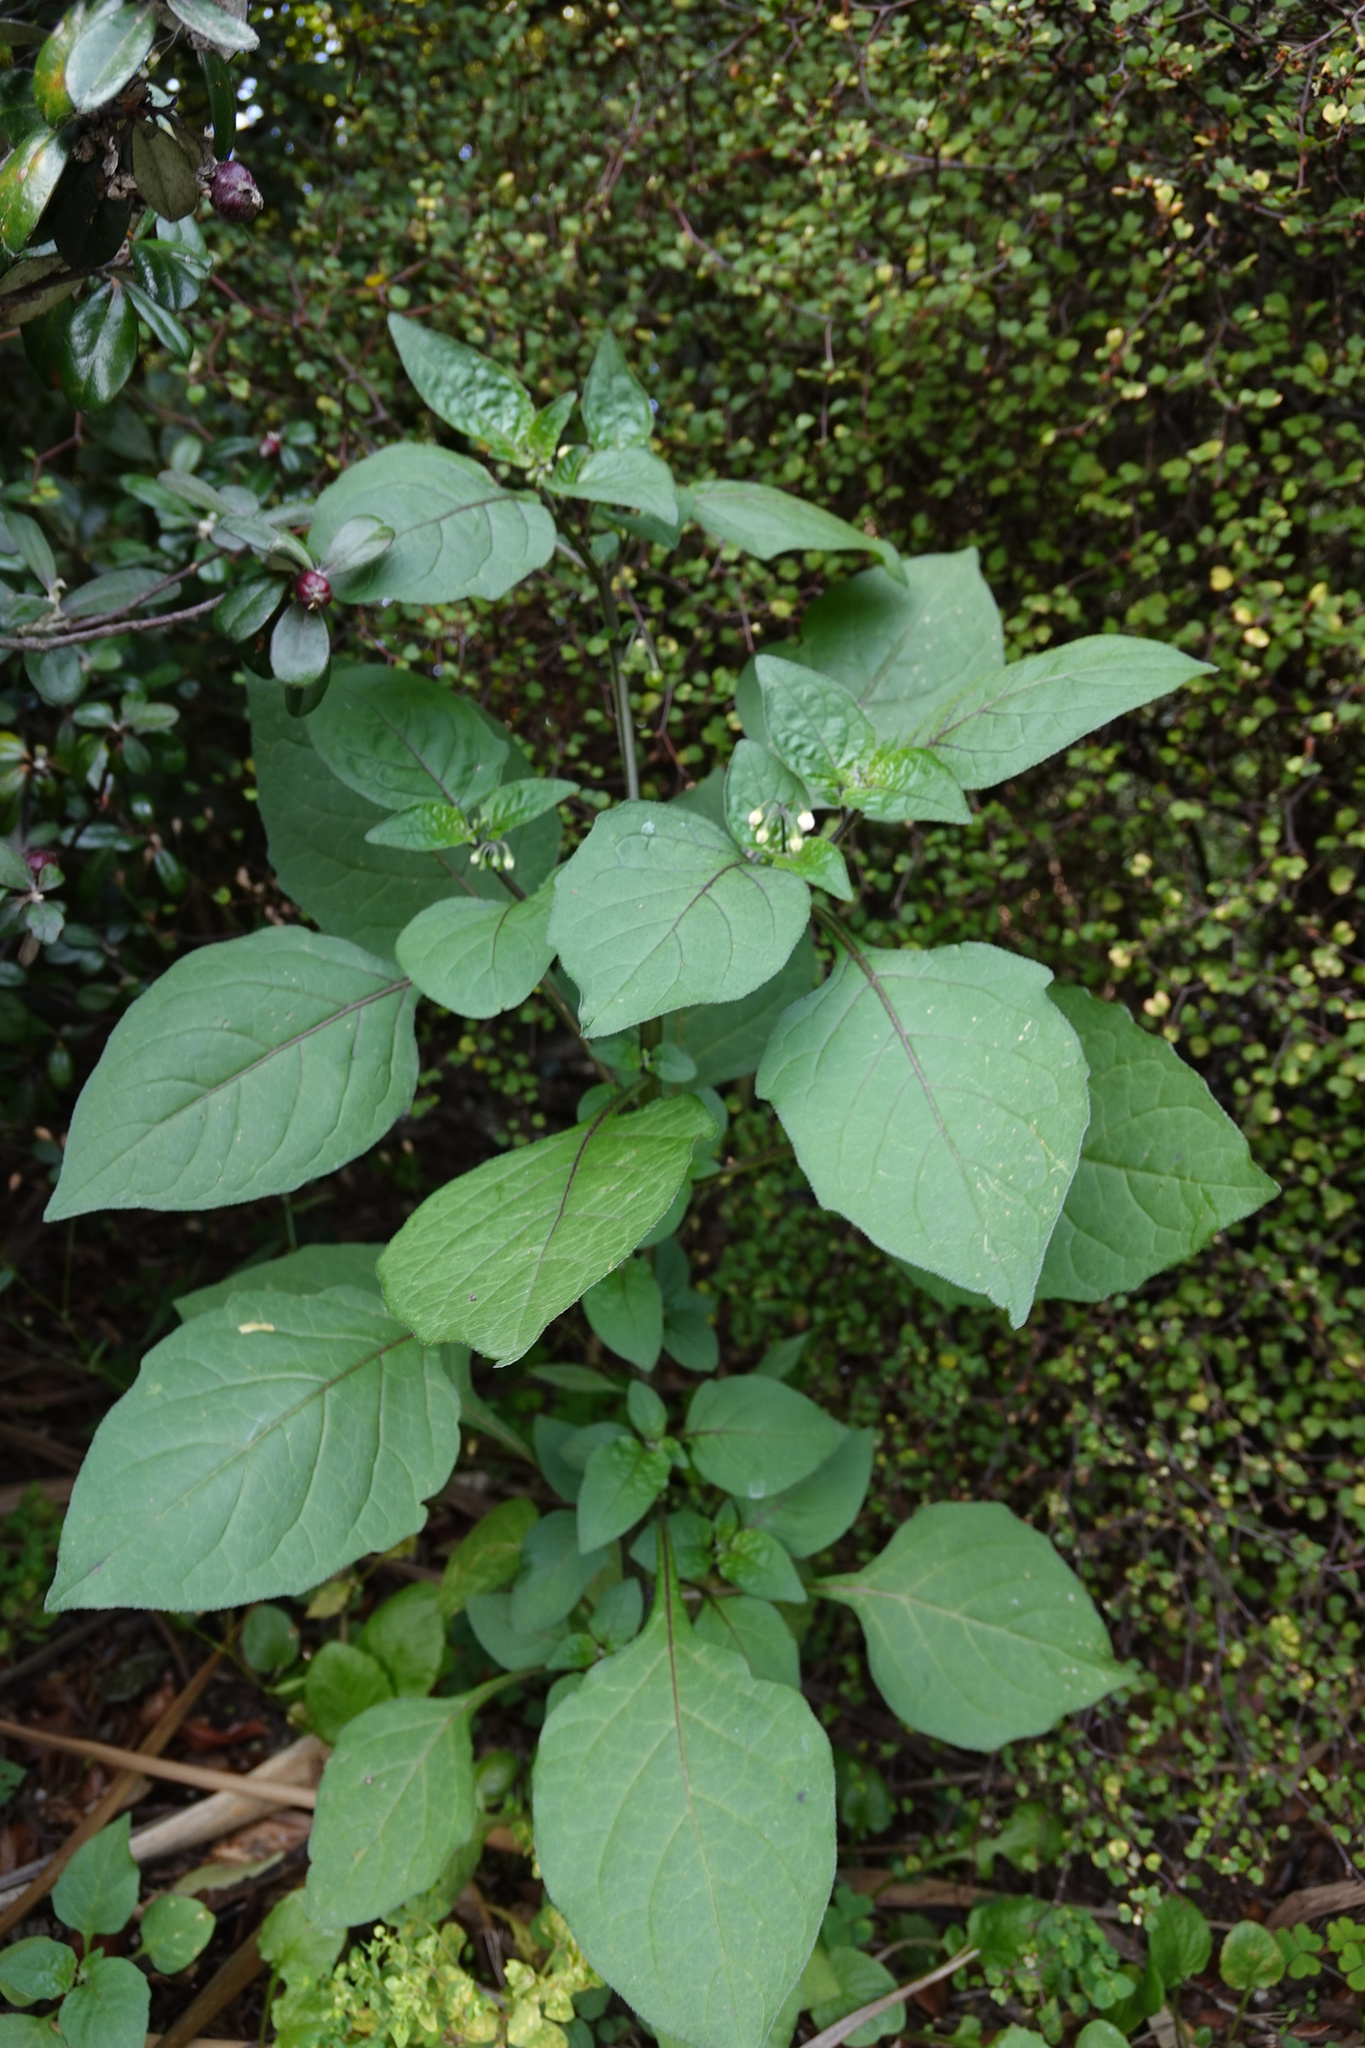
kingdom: Plantae
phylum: Tracheophyta
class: Magnoliopsida
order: Solanales
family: Solanaceae
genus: Solanum
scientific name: Solanum nigrum
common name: Black nightshade
